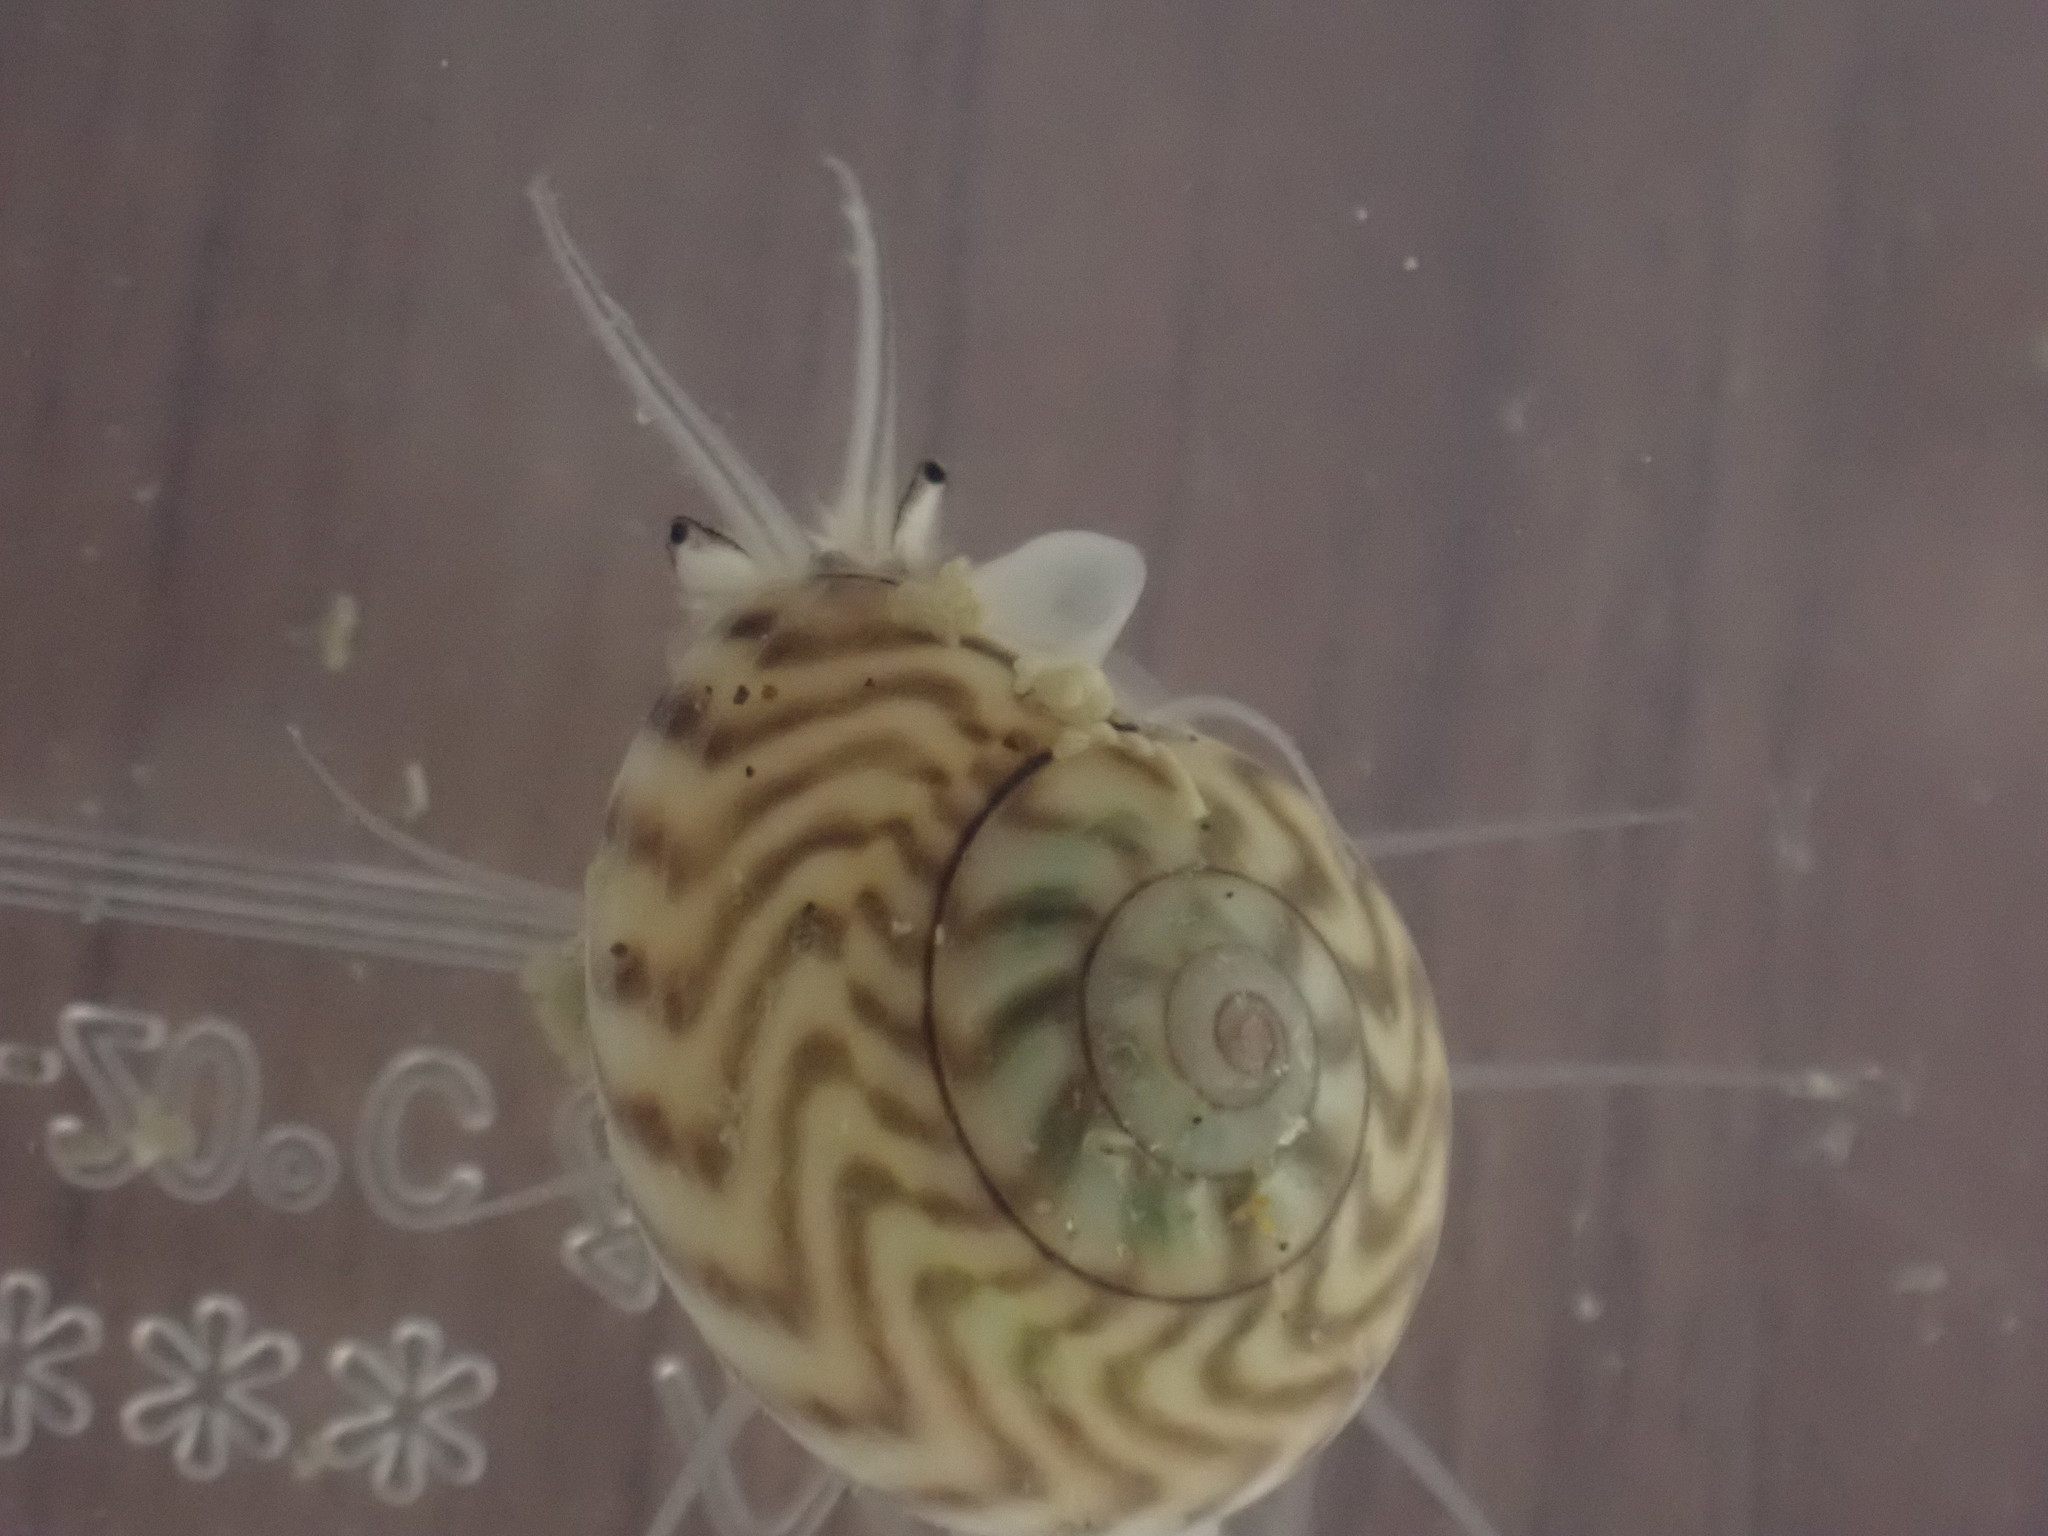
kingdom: Animalia
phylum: Mollusca
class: Gastropoda
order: Trochida
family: Trochidae
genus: Zethalia
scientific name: Zethalia zelandica
